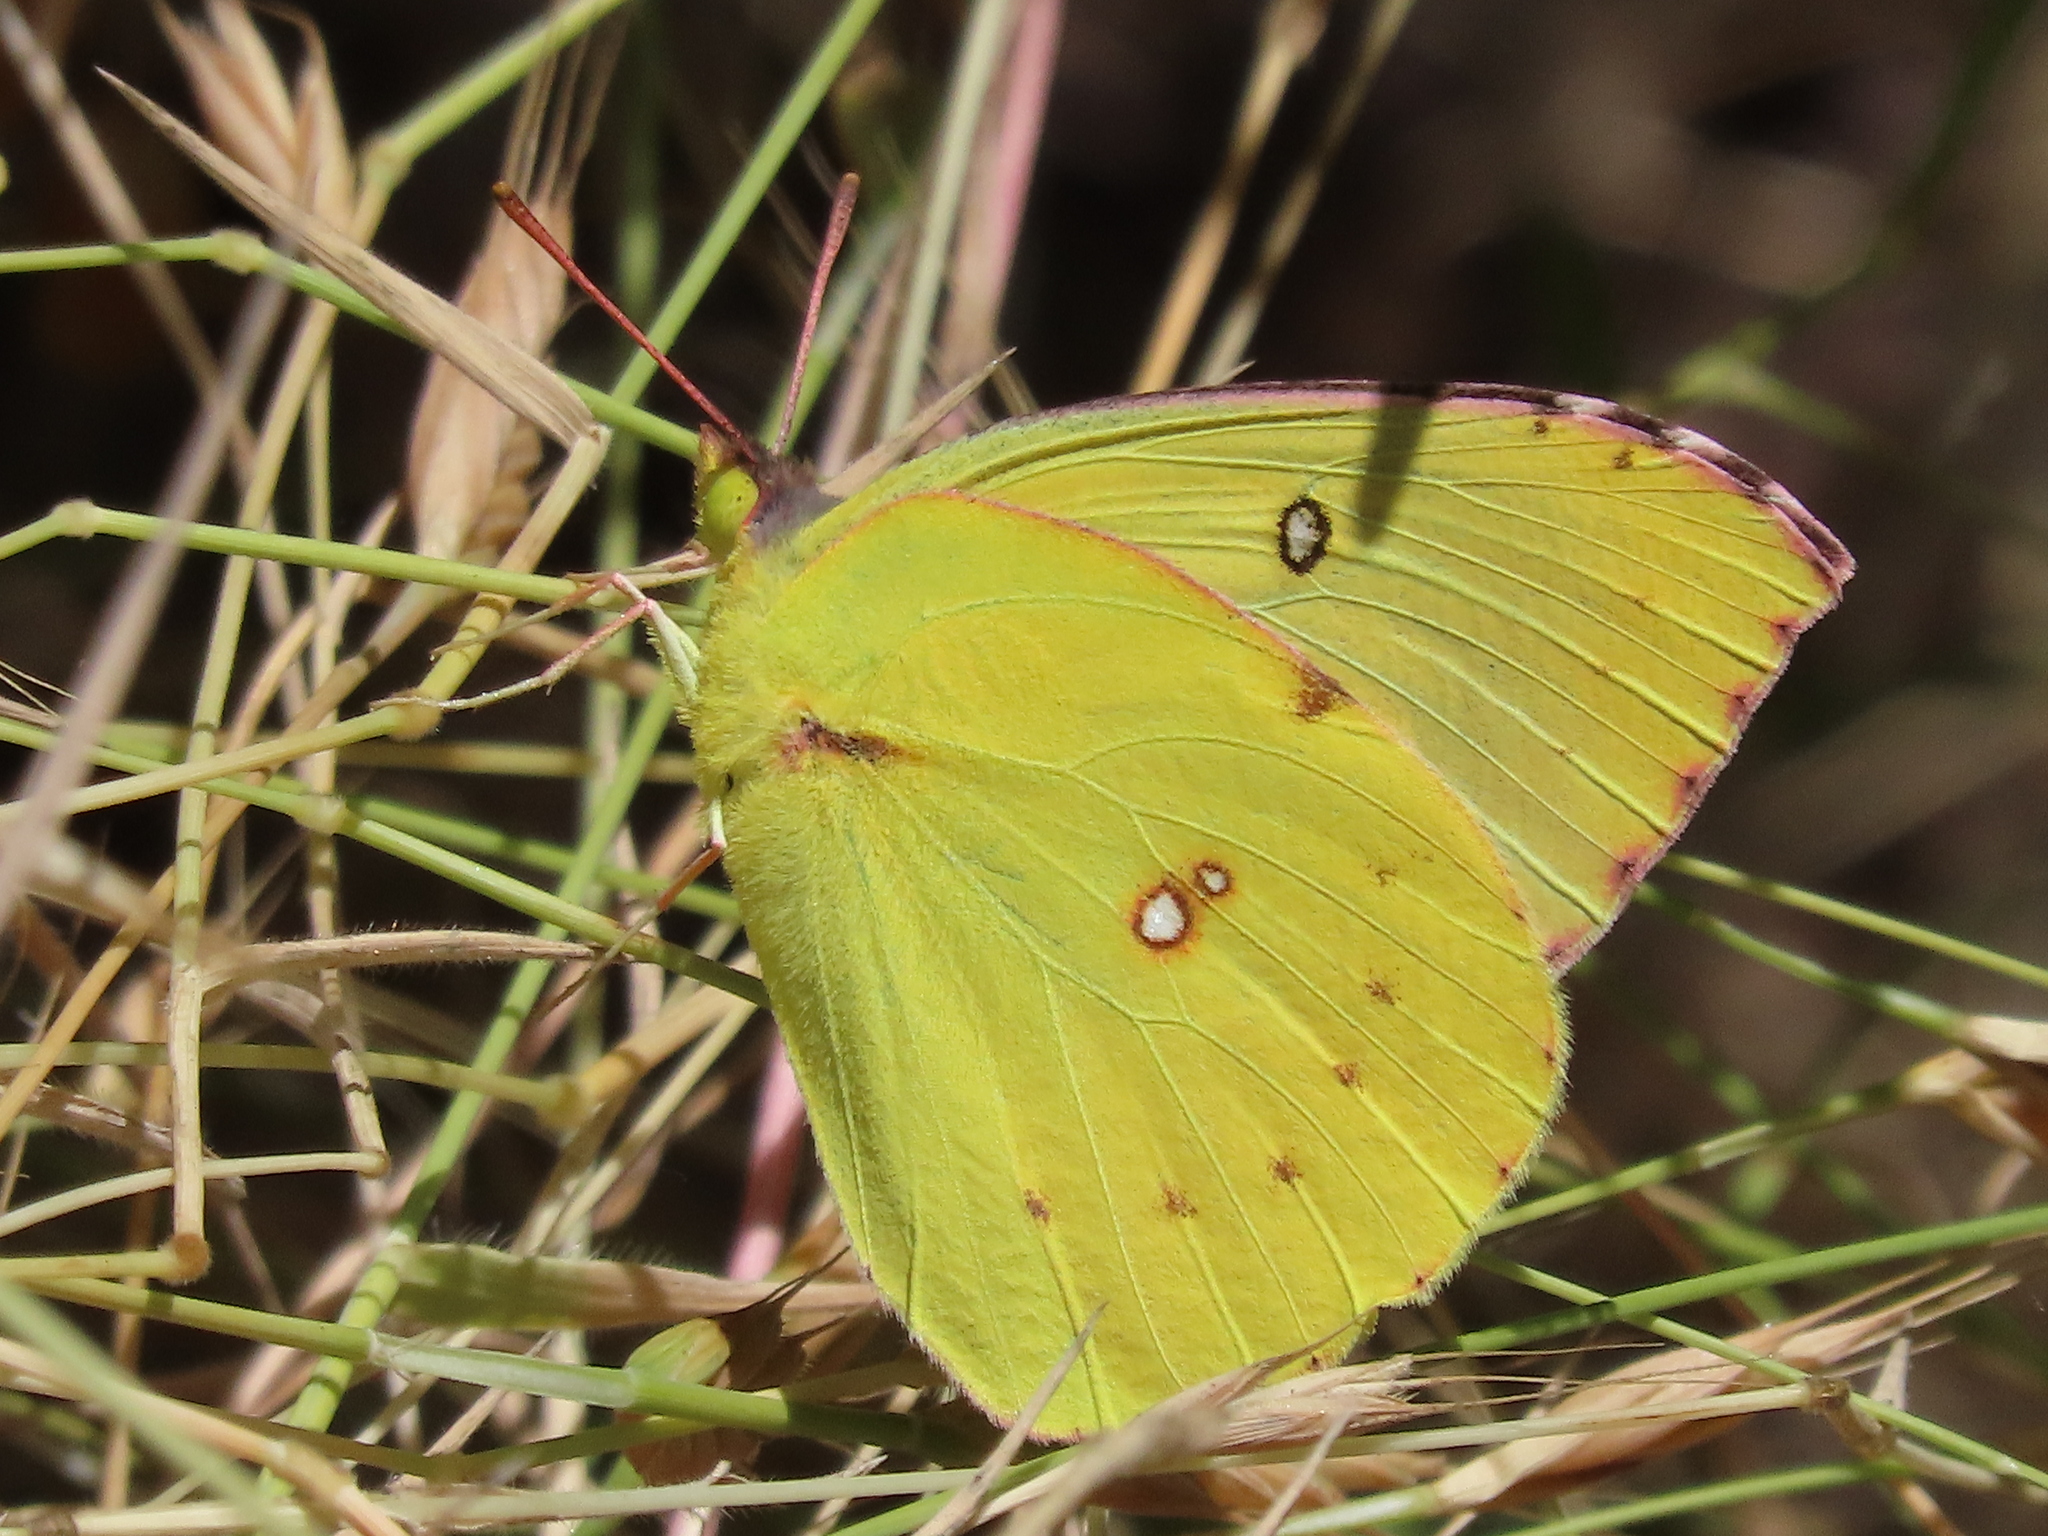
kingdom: Animalia
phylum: Arthropoda
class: Insecta
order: Lepidoptera
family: Pieridae
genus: Zerene
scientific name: Zerene eurydice
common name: California dogface
